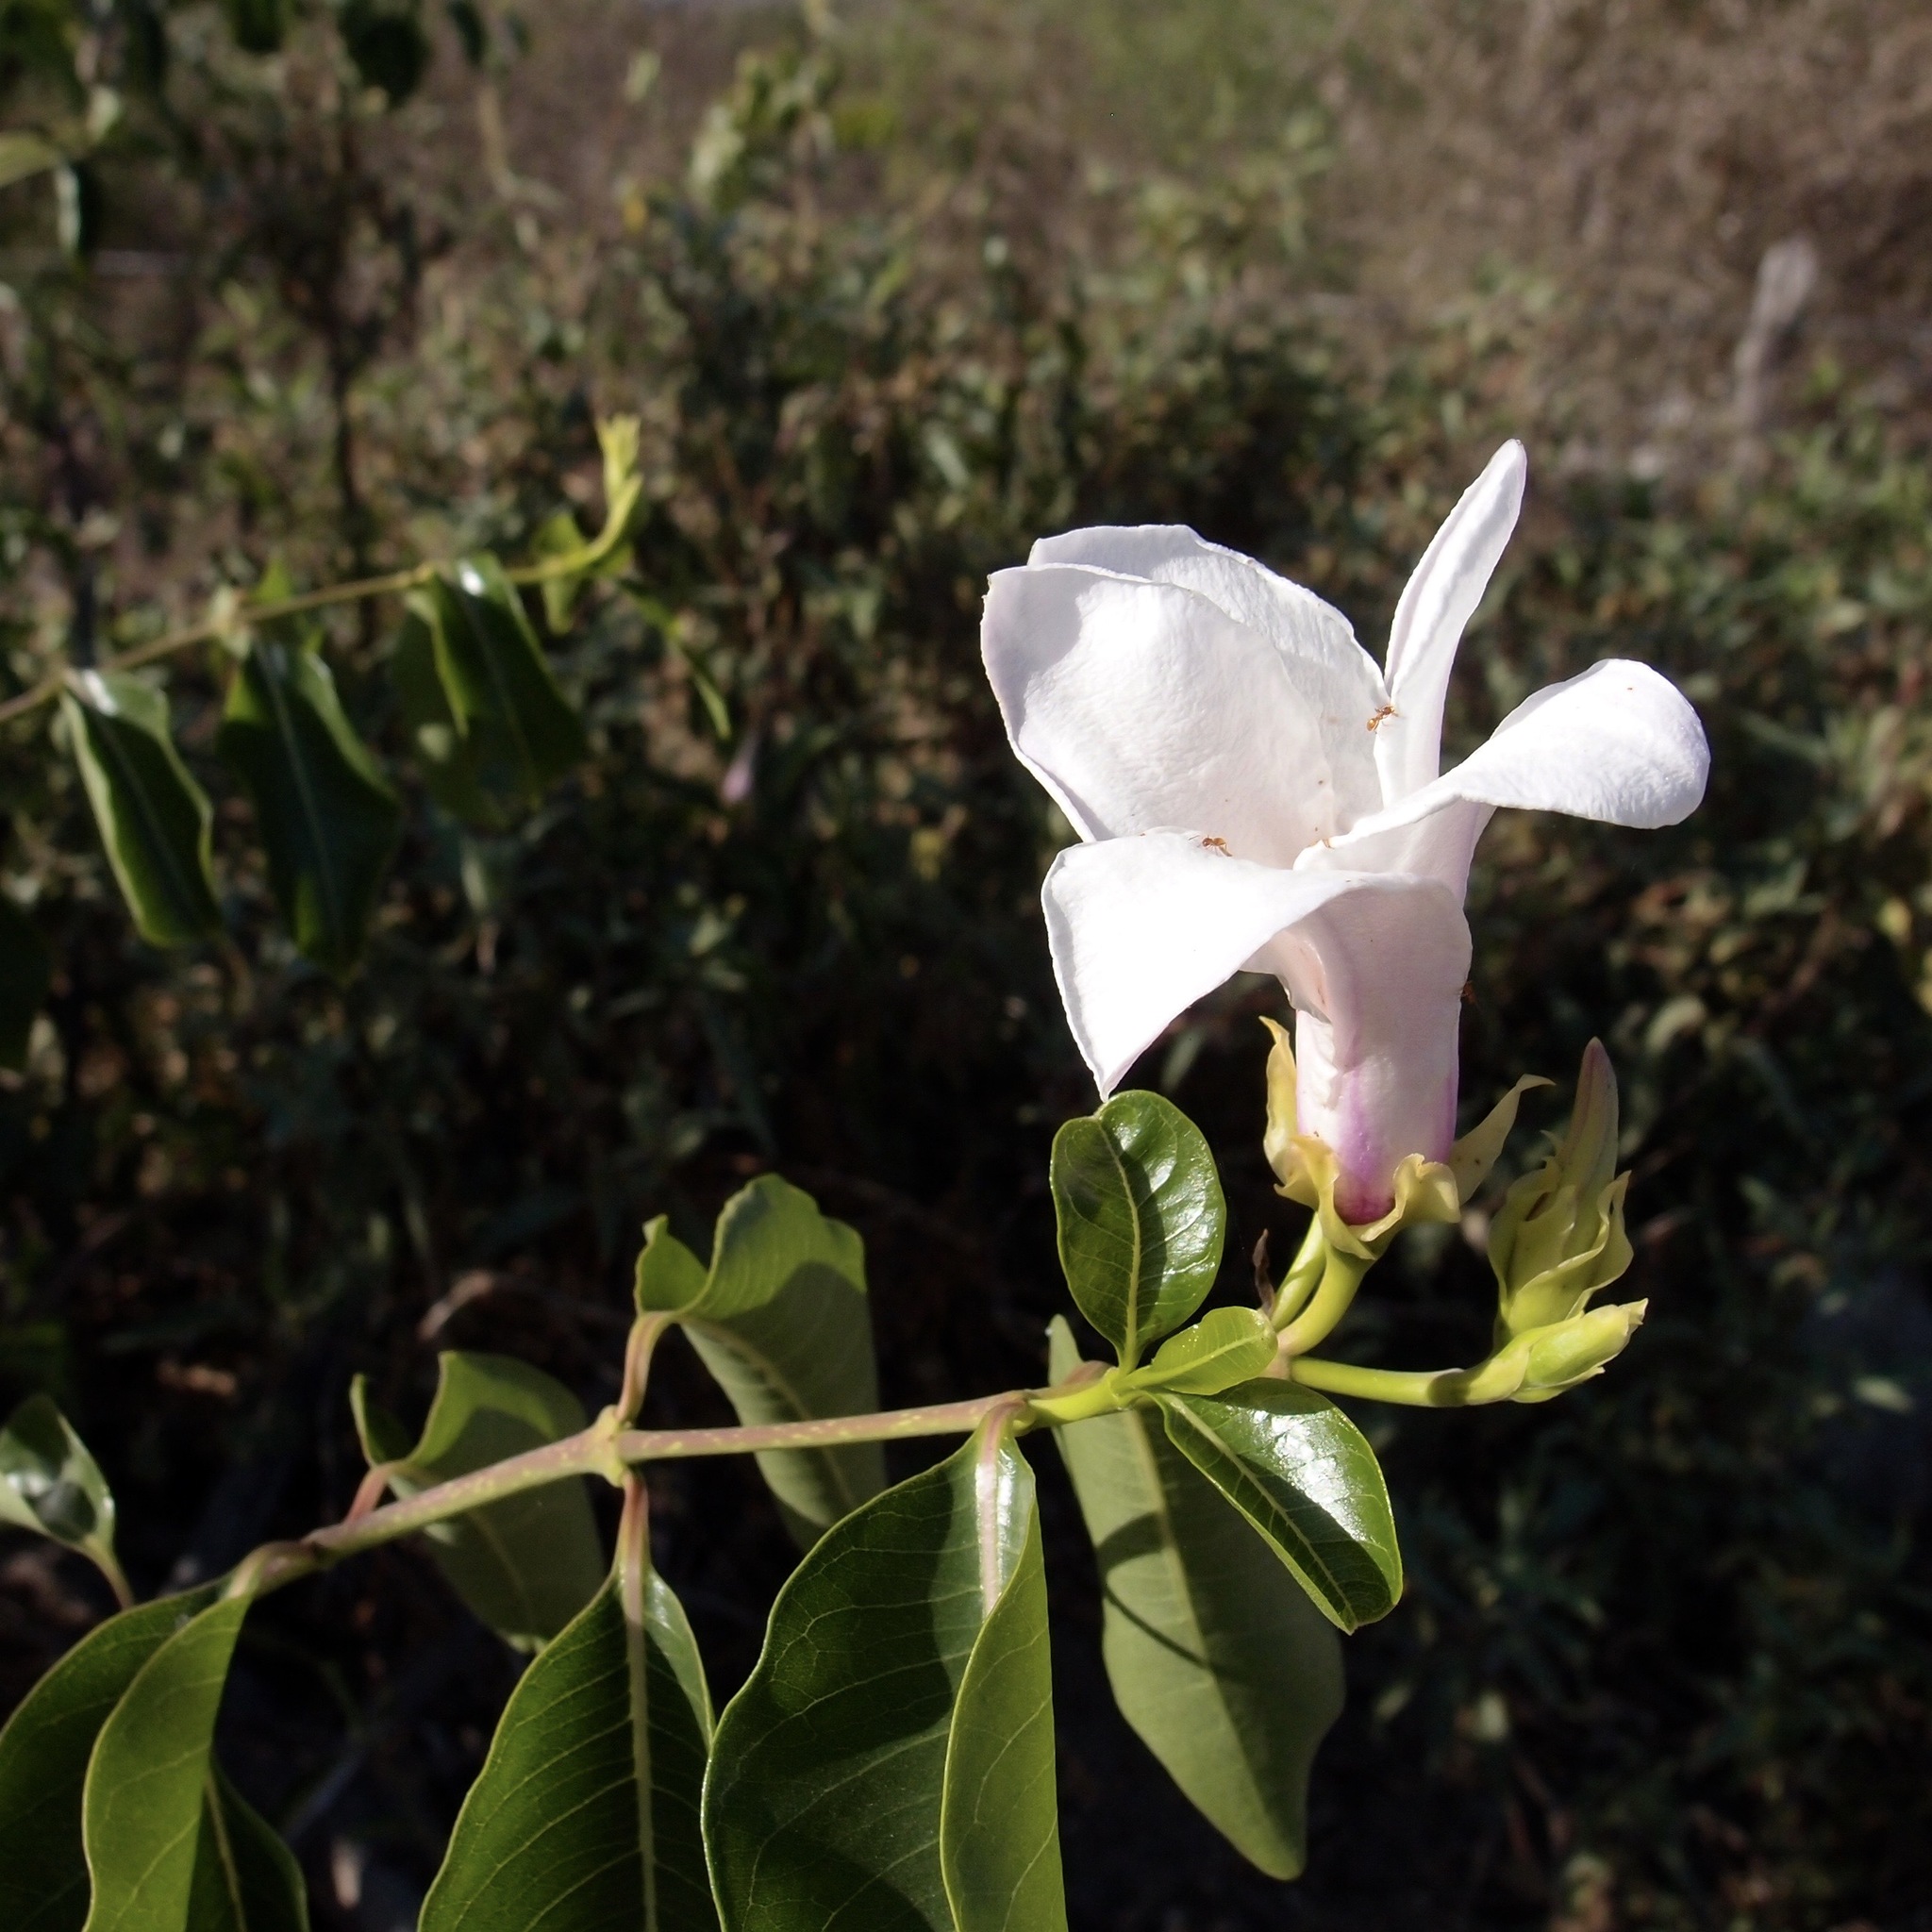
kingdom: Plantae
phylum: Tracheophyta
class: Magnoliopsida
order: Gentianales
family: Apocynaceae
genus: Cryptostegia
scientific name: Cryptostegia grandiflora
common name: Palay rubbervine
